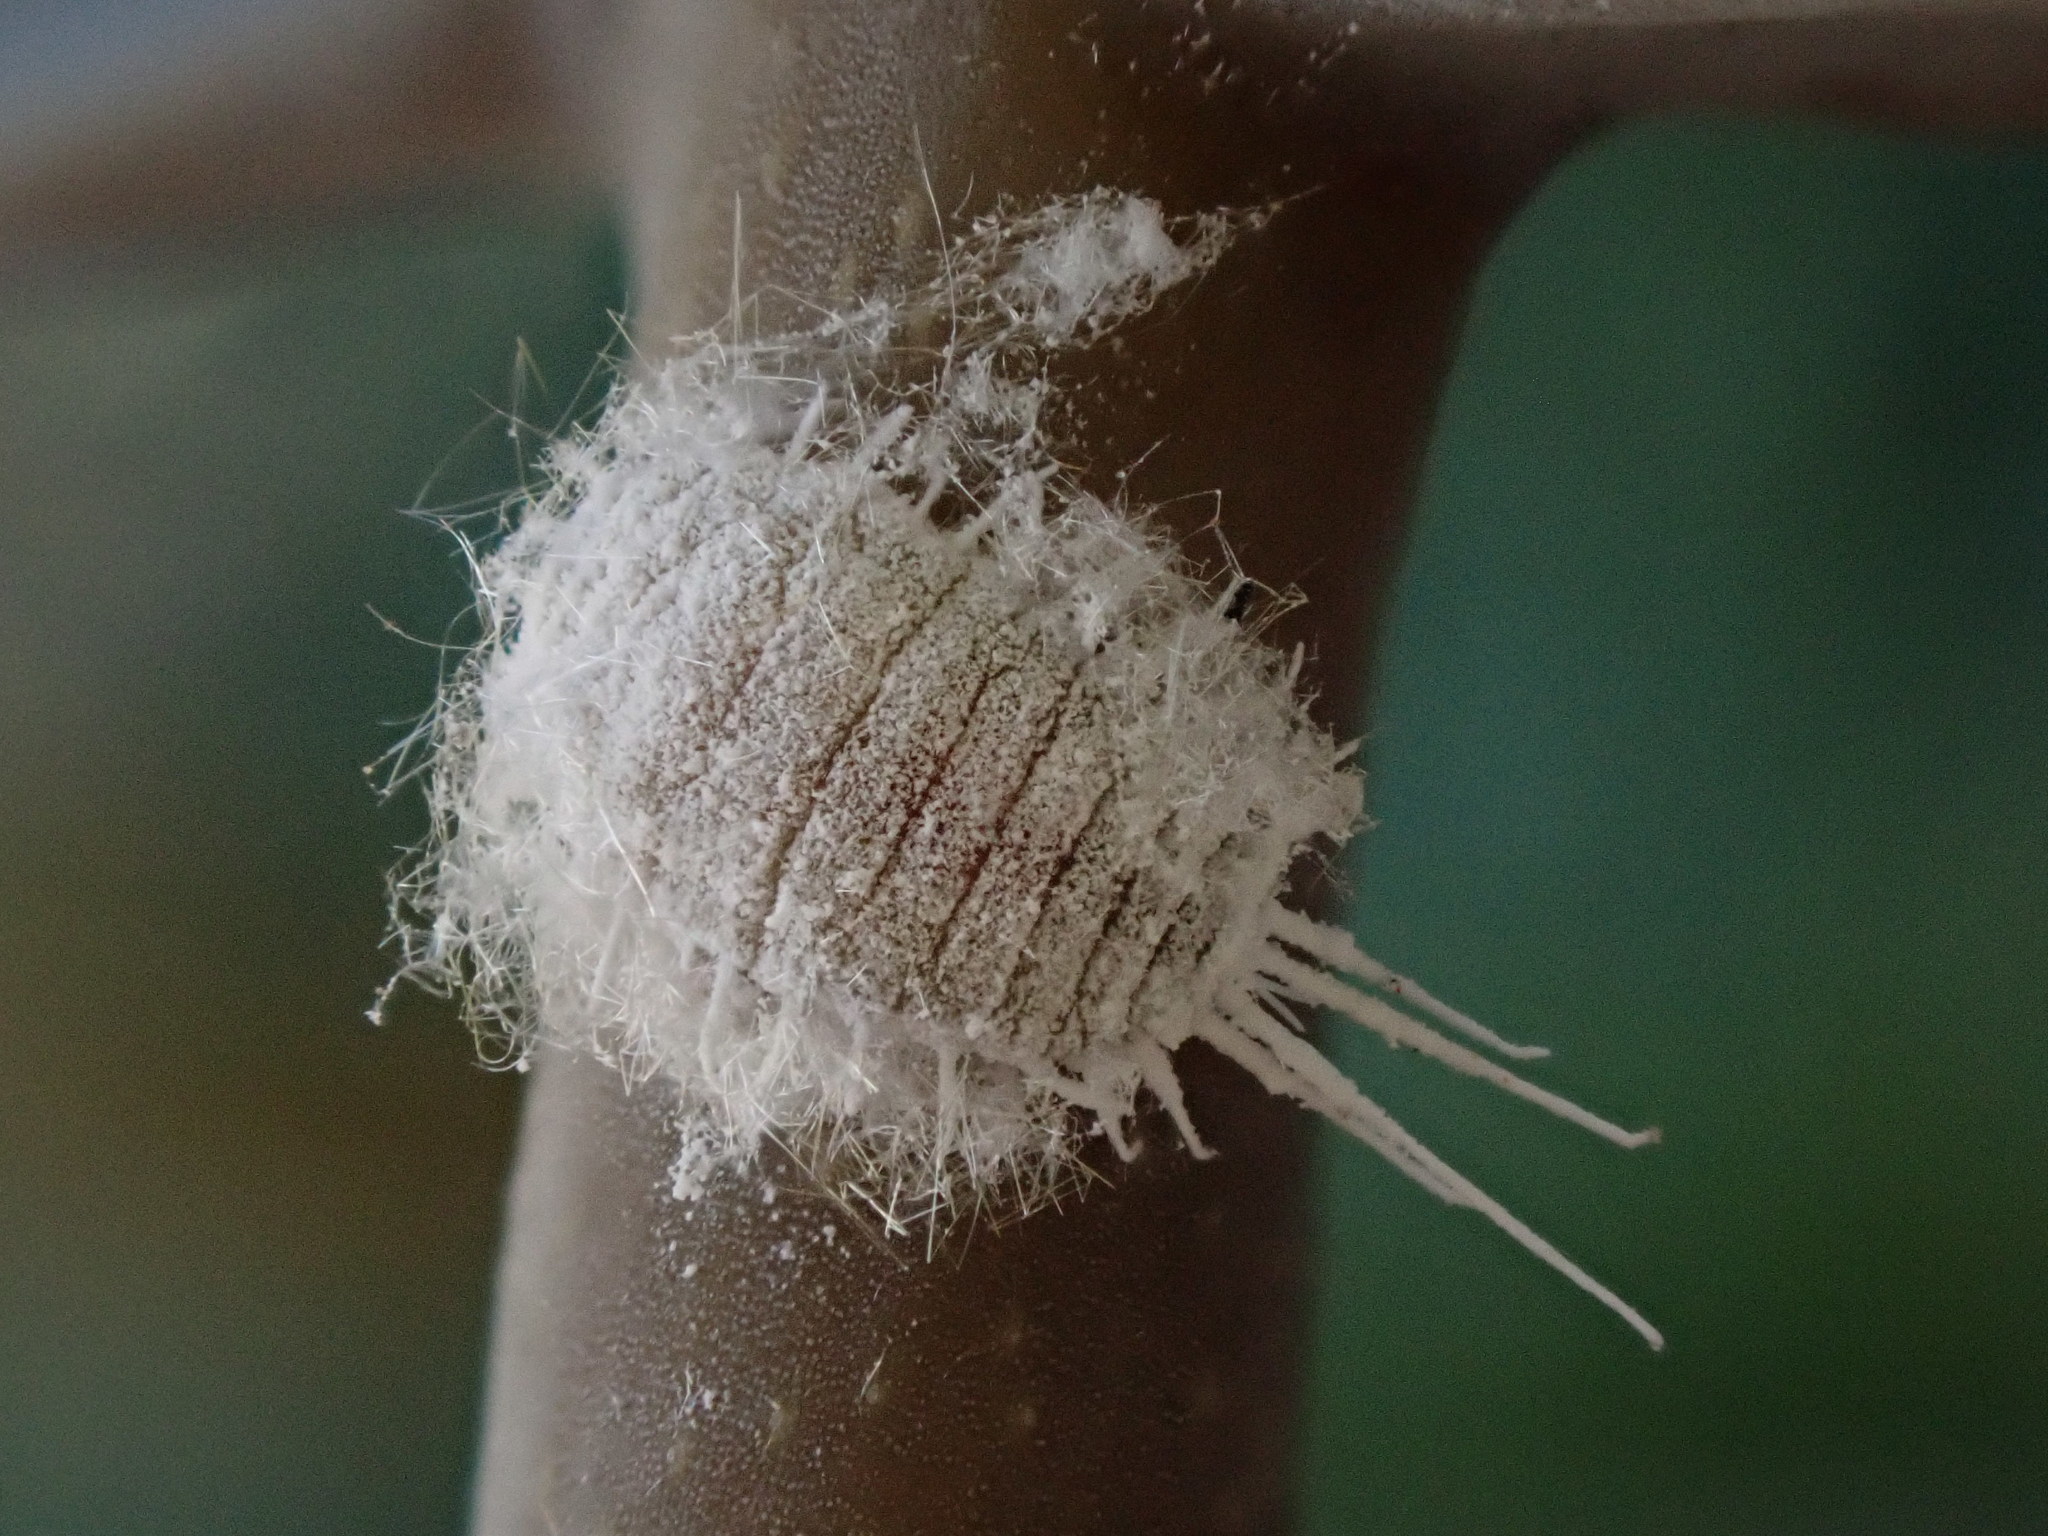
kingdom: Animalia
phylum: Arthropoda
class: Insecta
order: Hemiptera
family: Pseudococcidae
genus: Pseudococcus
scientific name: Pseudococcus longispinus
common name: Long-tailed mealybug
